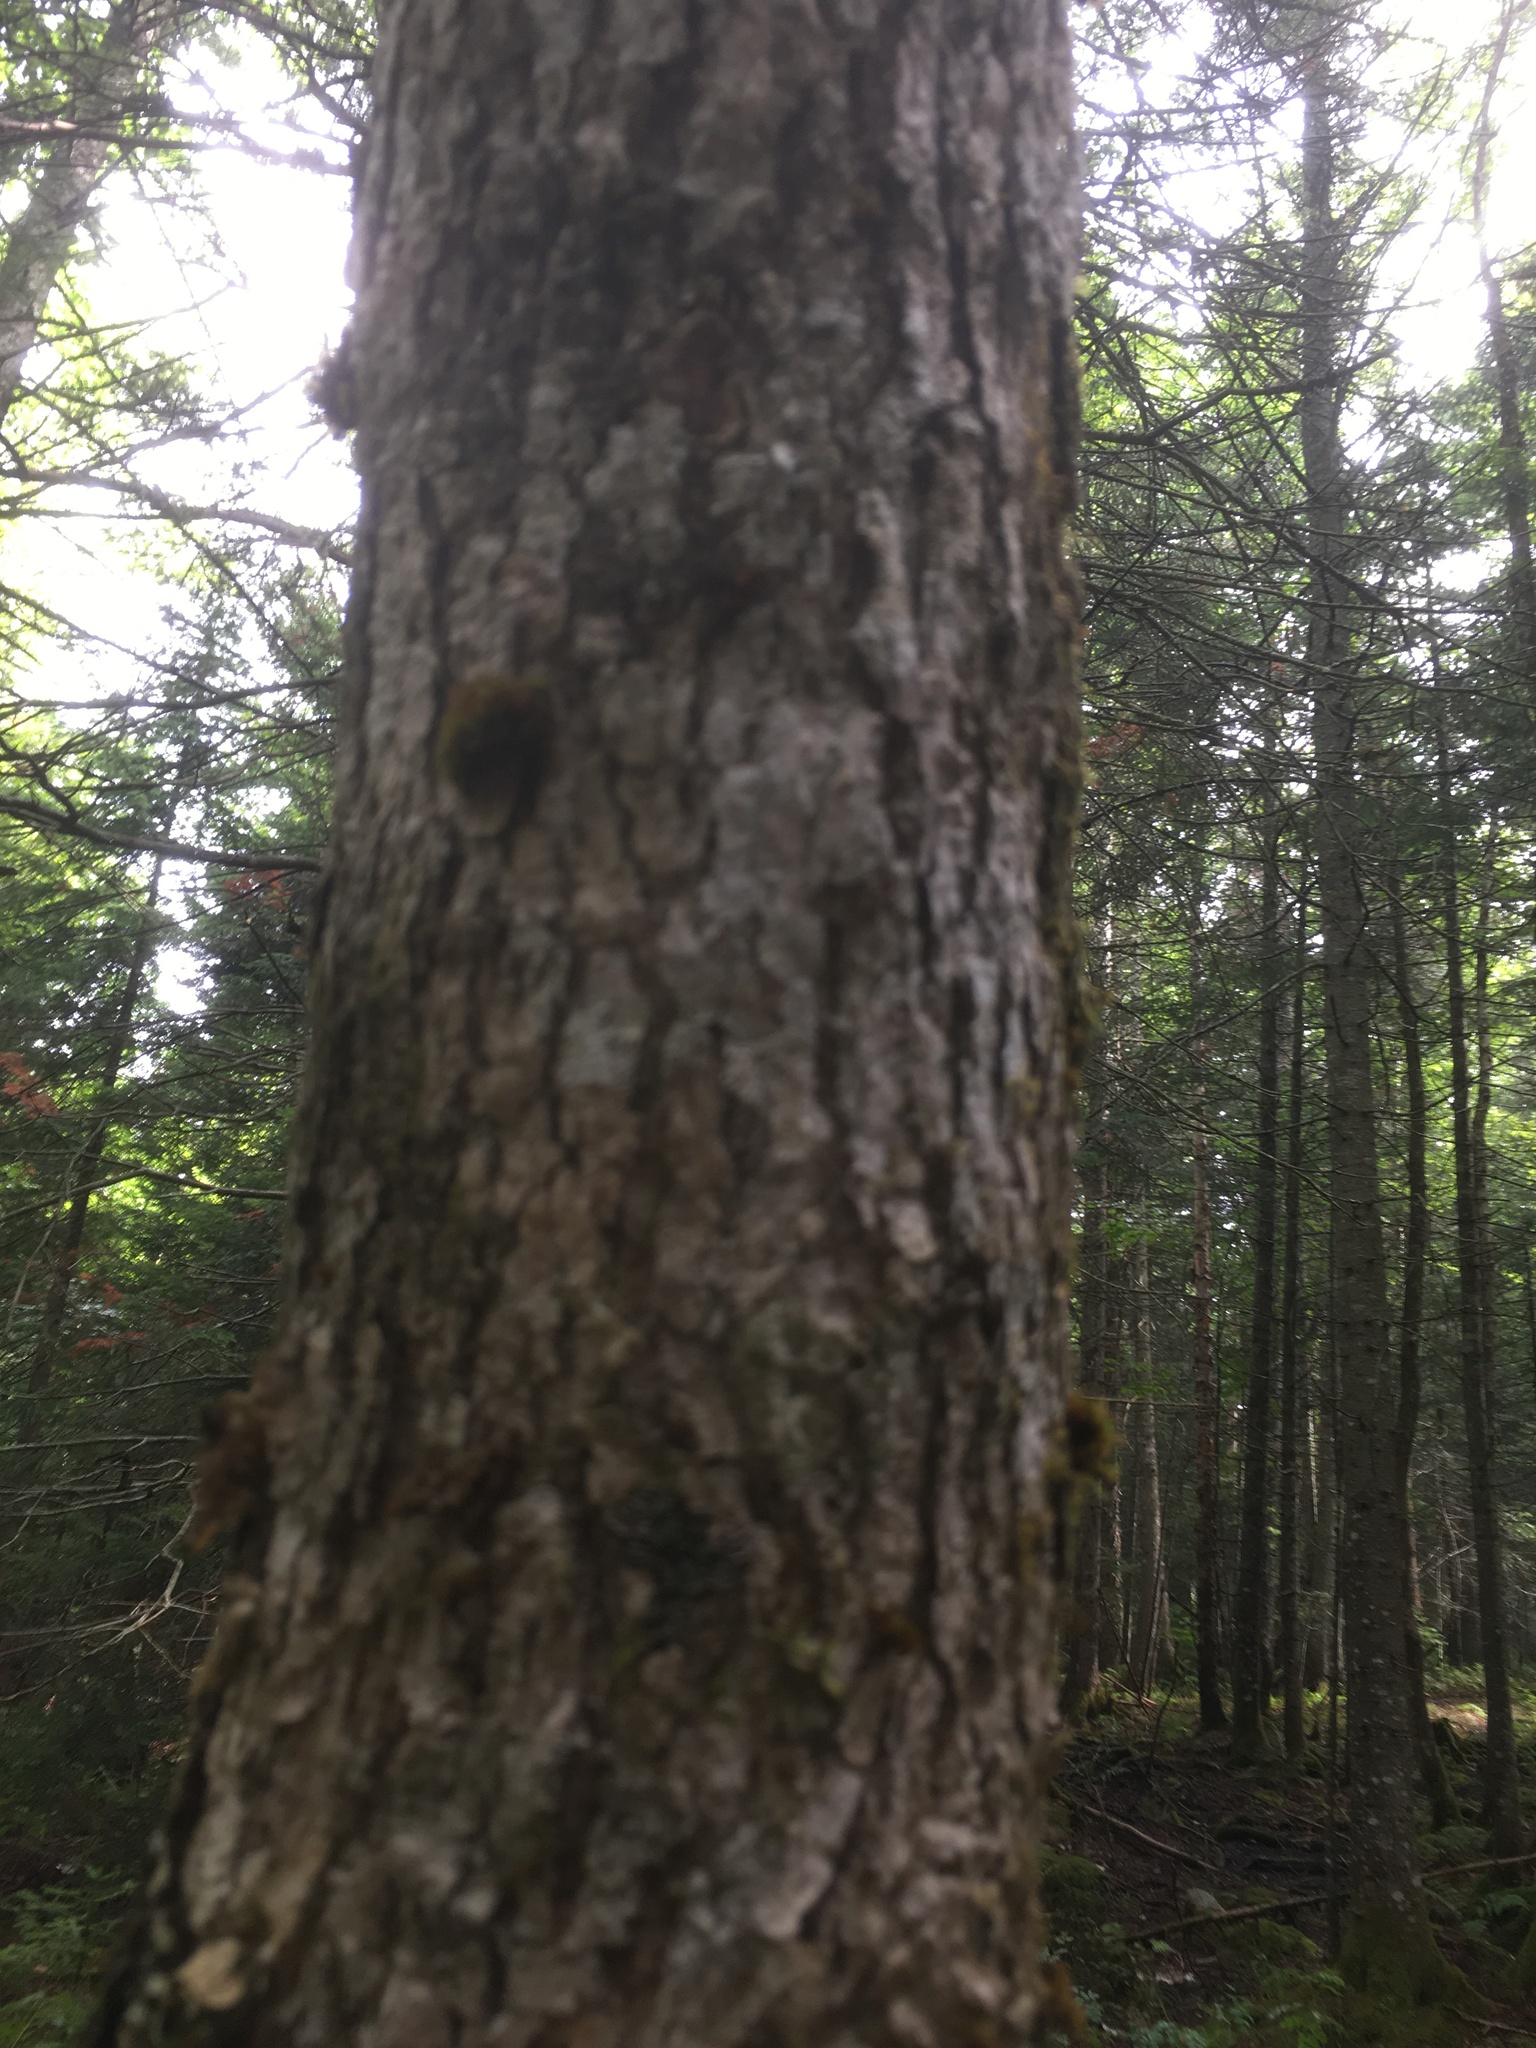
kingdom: Plantae
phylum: Tracheophyta
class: Magnoliopsida
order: Lamiales
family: Oleaceae
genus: Fraxinus
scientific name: Fraxinus nigra
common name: Black ash
